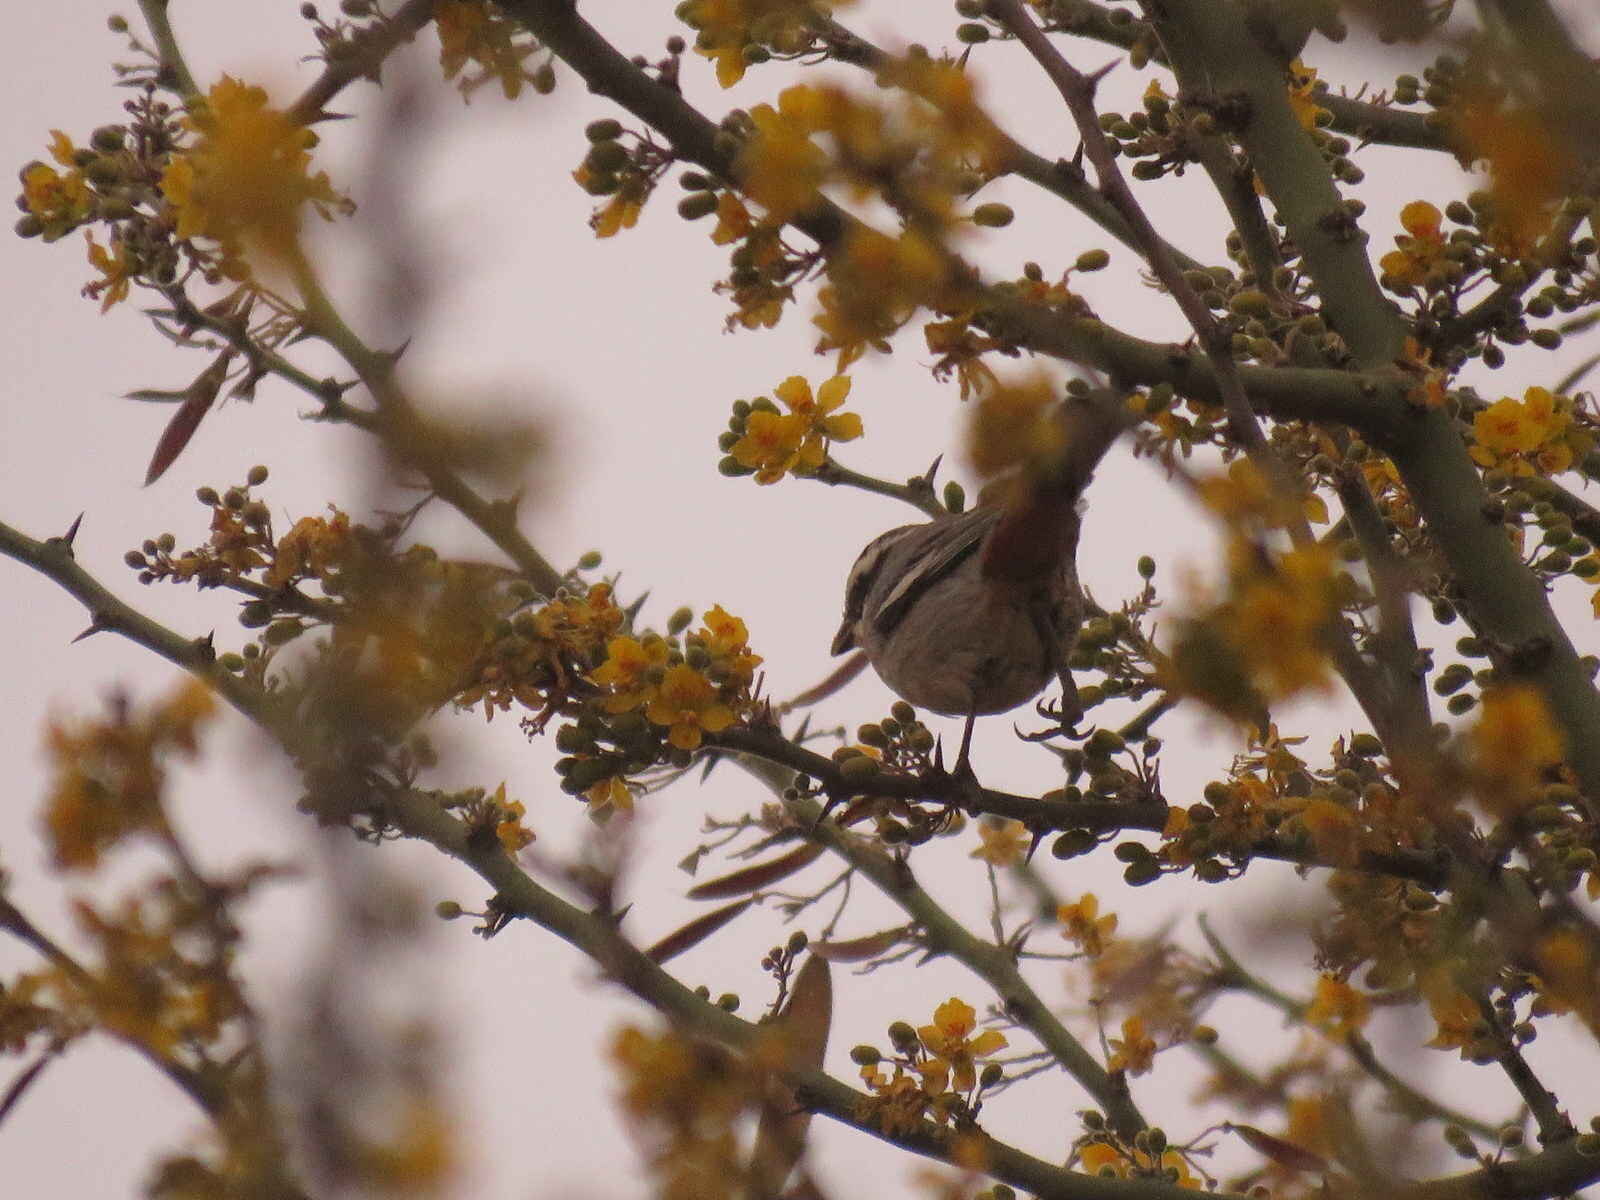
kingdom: Animalia
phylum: Chordata
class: Aves
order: Passeriformes
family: Thraupidae
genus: Microspingus
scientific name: Microspingus torquatus
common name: Ringed warbling-finch
